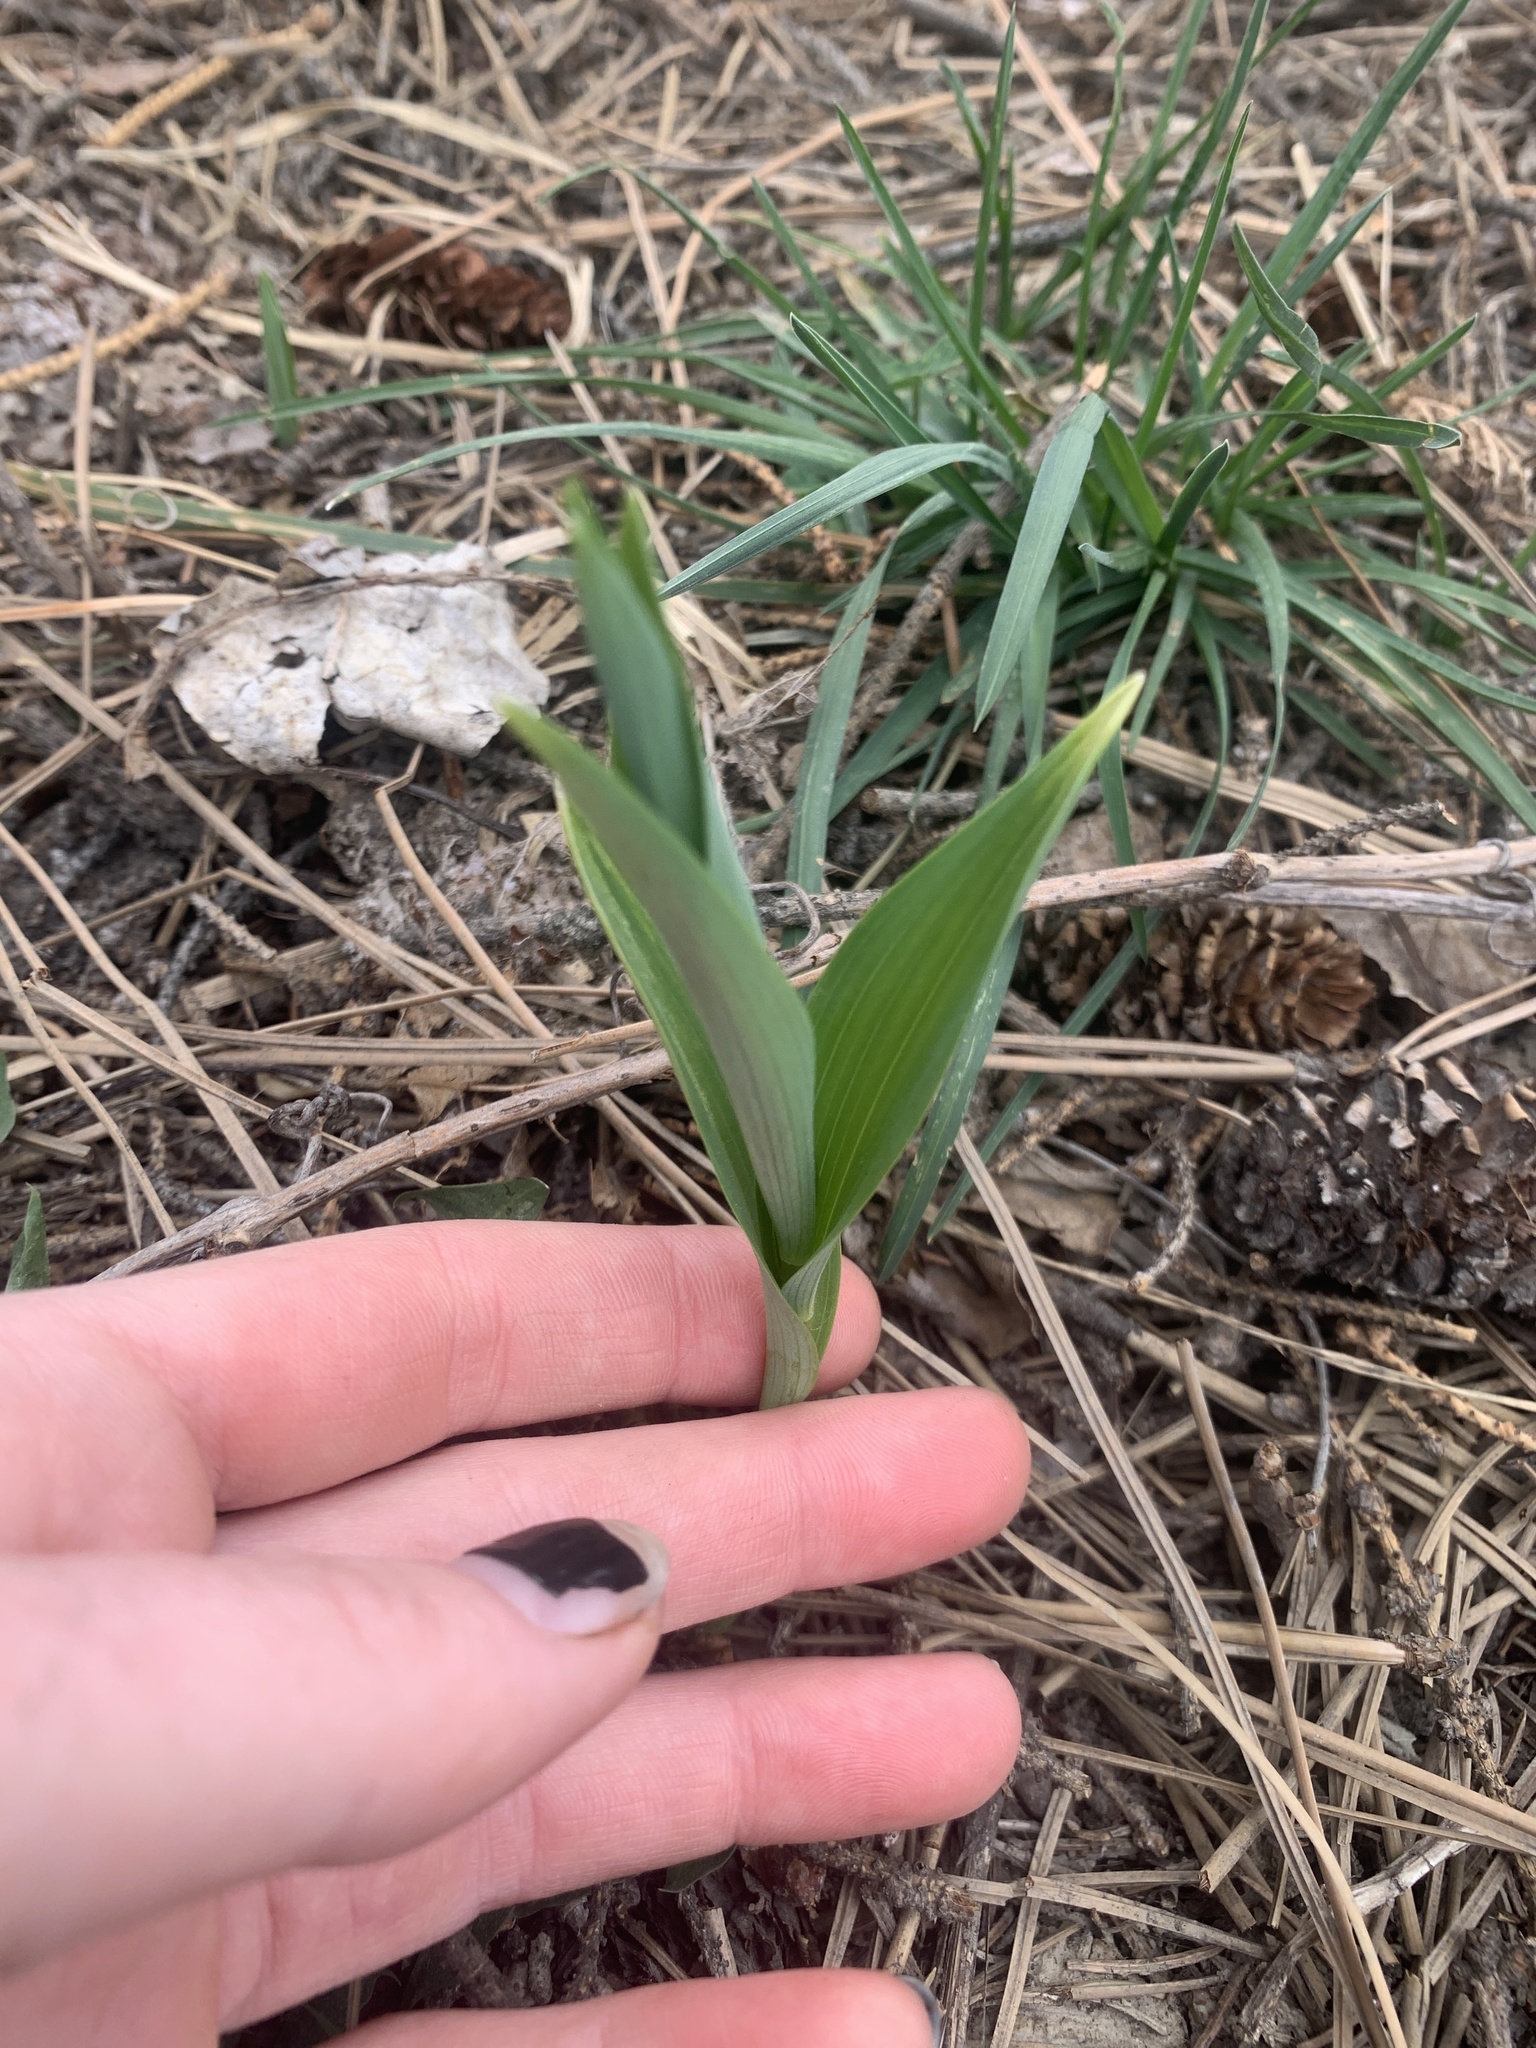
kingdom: Plantae
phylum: Tracheophyta
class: Liliopsida
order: Asparagales
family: Asparagaceae
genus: Maianthemum
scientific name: Maianthemum stellatum
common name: Little false solomon's seal
